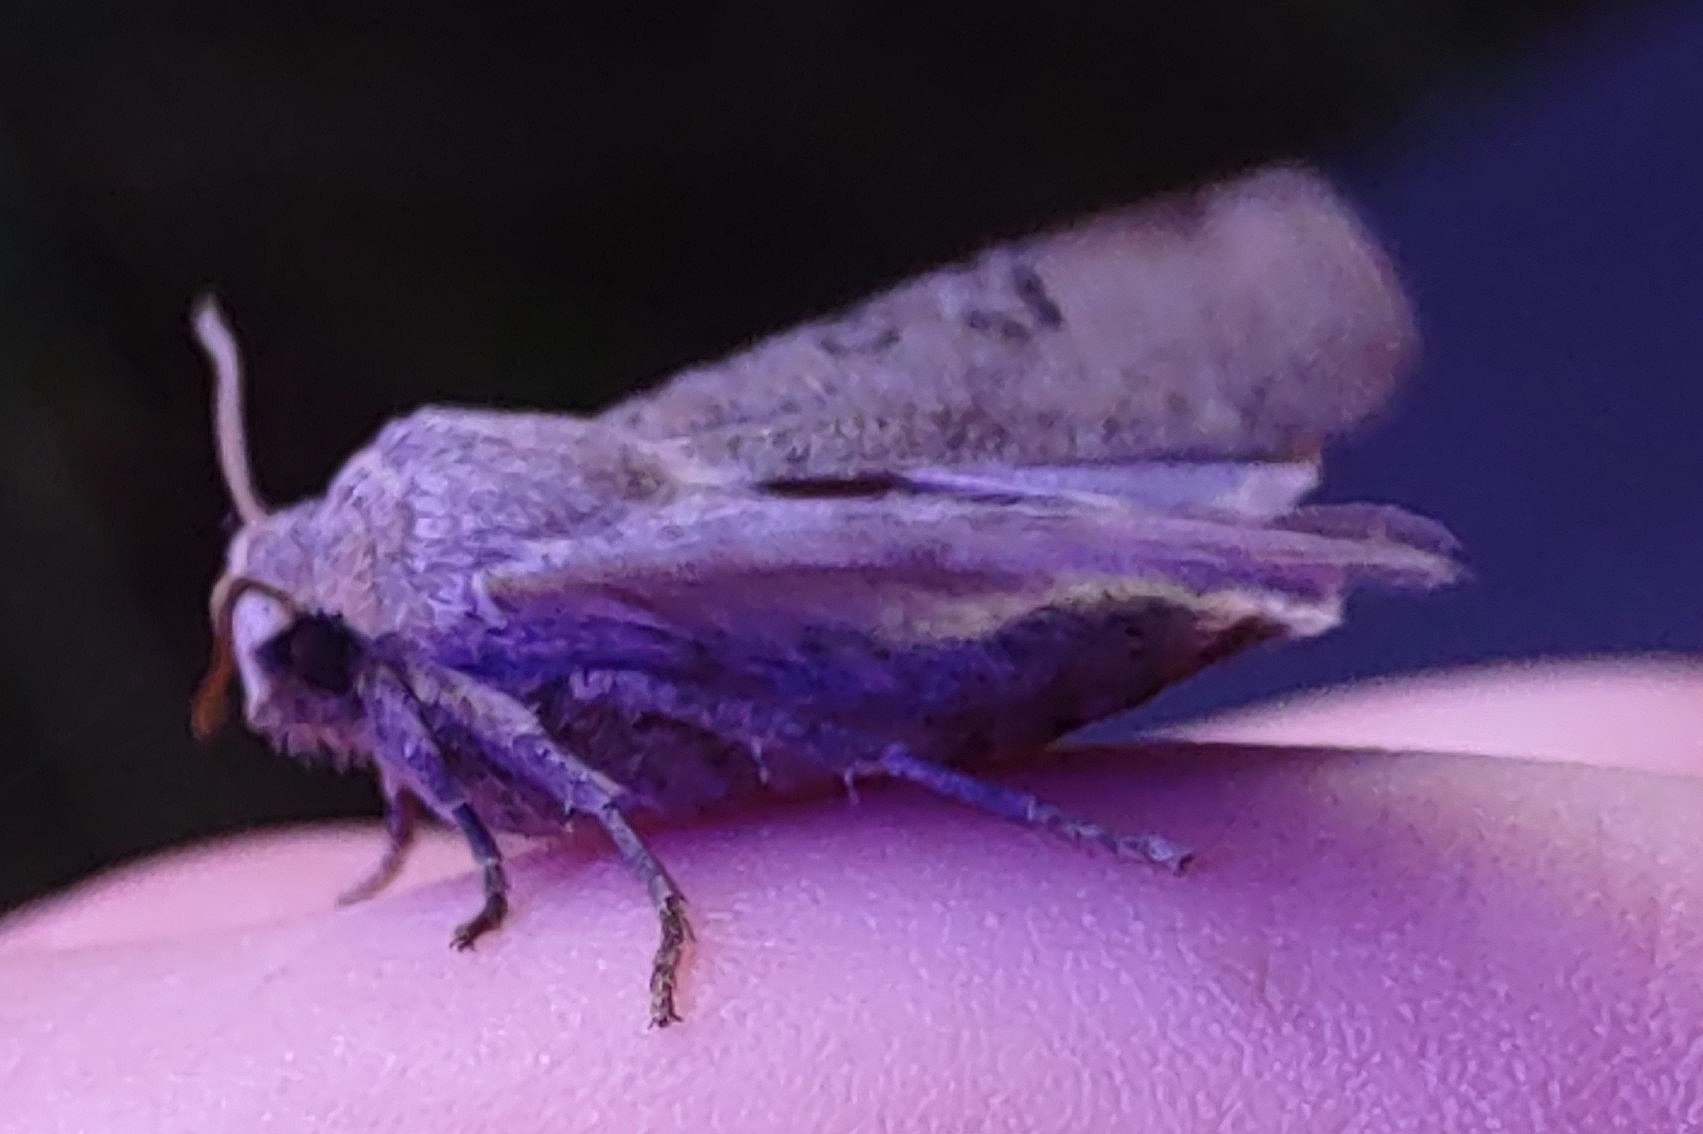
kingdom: Animalia
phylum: Arthropoda
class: Insecta
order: Lepidoptera
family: Noctuidae
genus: Conistra
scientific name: Conistra rubiginosa
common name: Black-spotted chestnut
